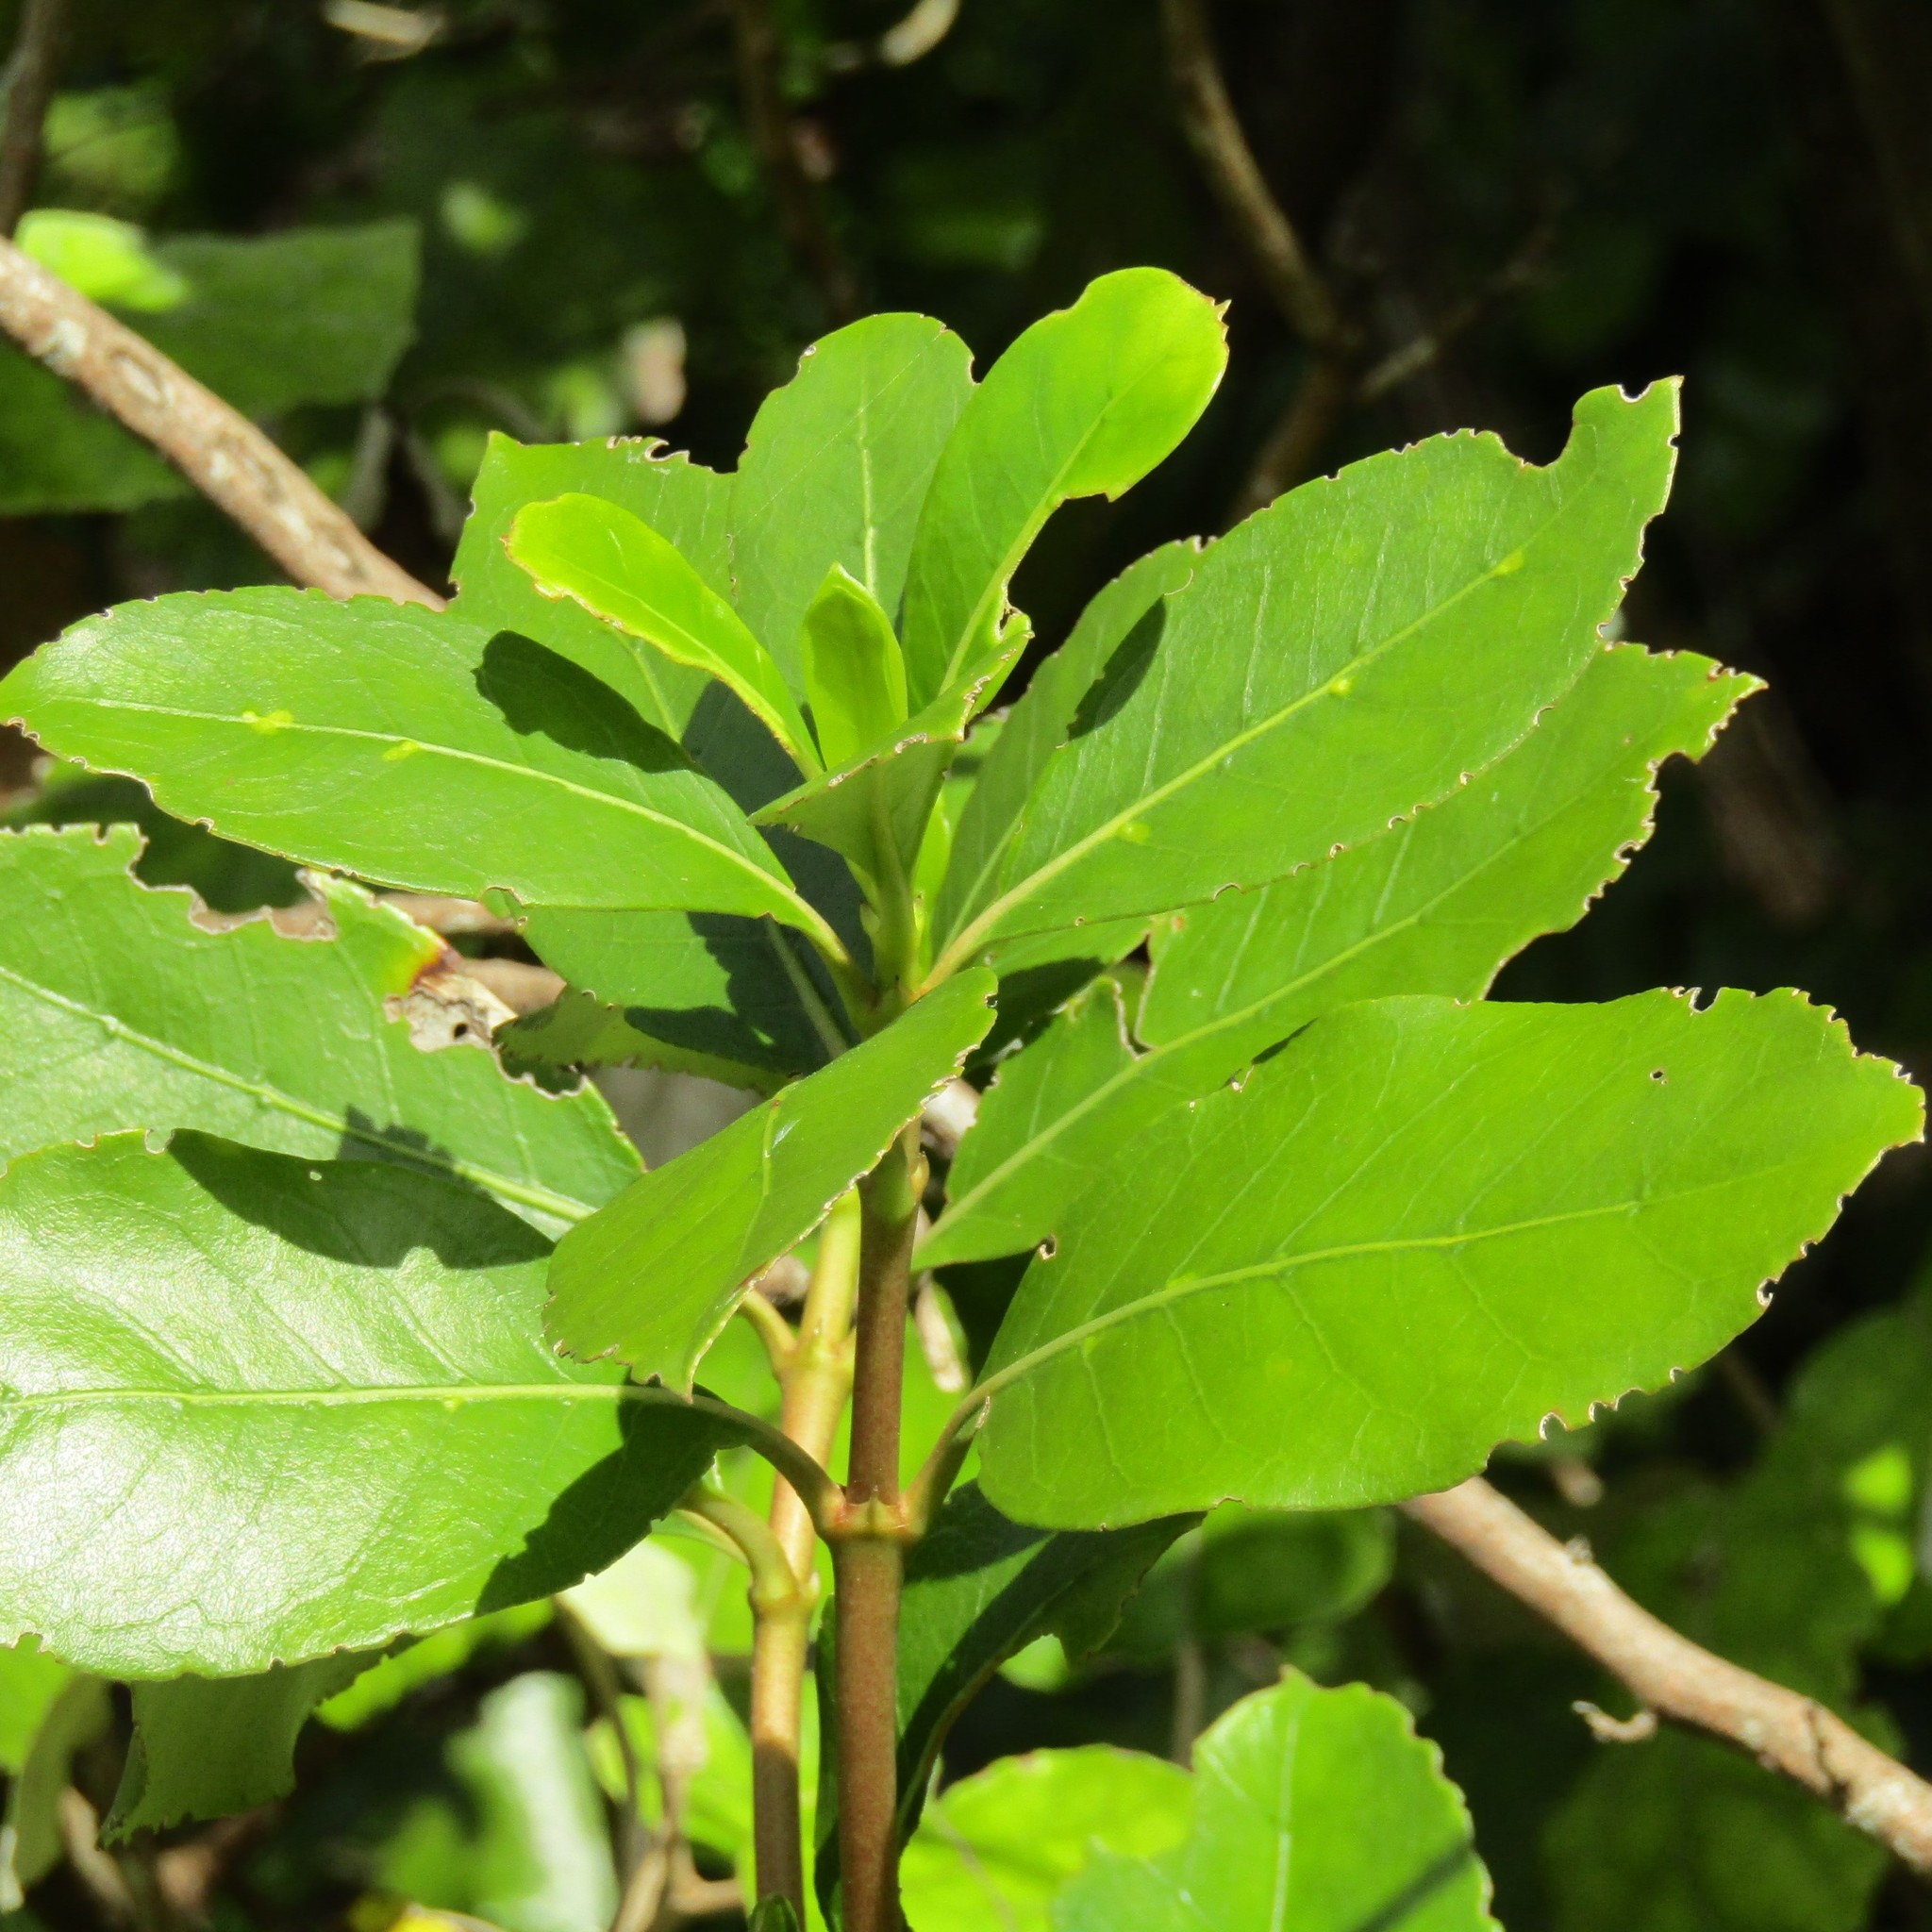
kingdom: Plantae
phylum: Tracheophyta
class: Magnoliopsida
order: Gentianales
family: Rubiaceae
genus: Coprosma
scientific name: Coprosma lucida
